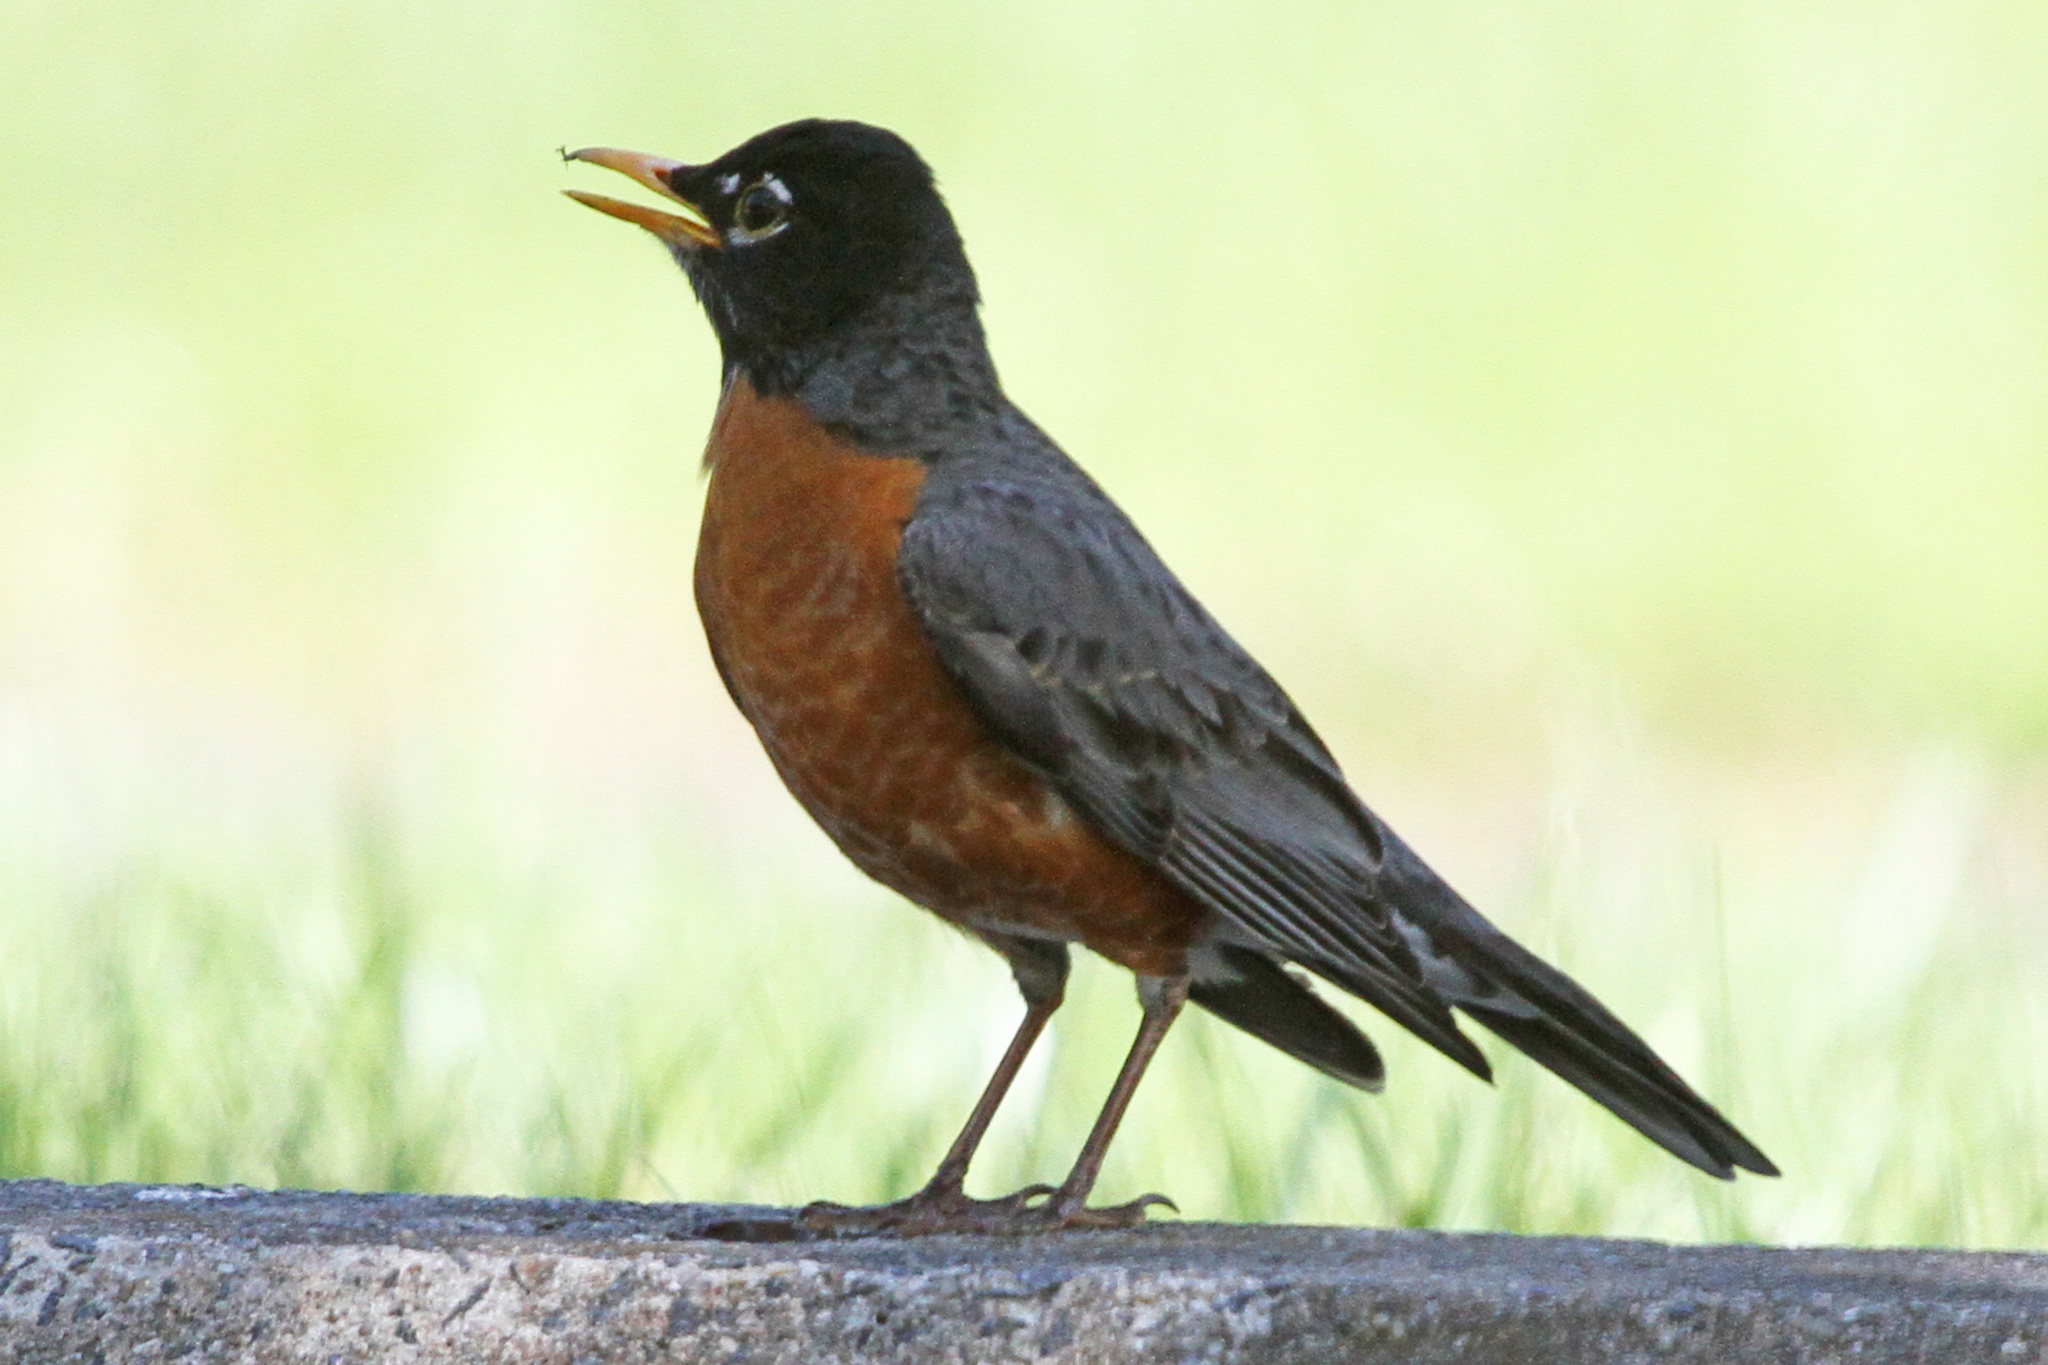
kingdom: Animalia
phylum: Chordata
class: Aves
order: Passeriformes
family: Turdidae
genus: Turdus
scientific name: Turdus migratorius
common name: American robin
